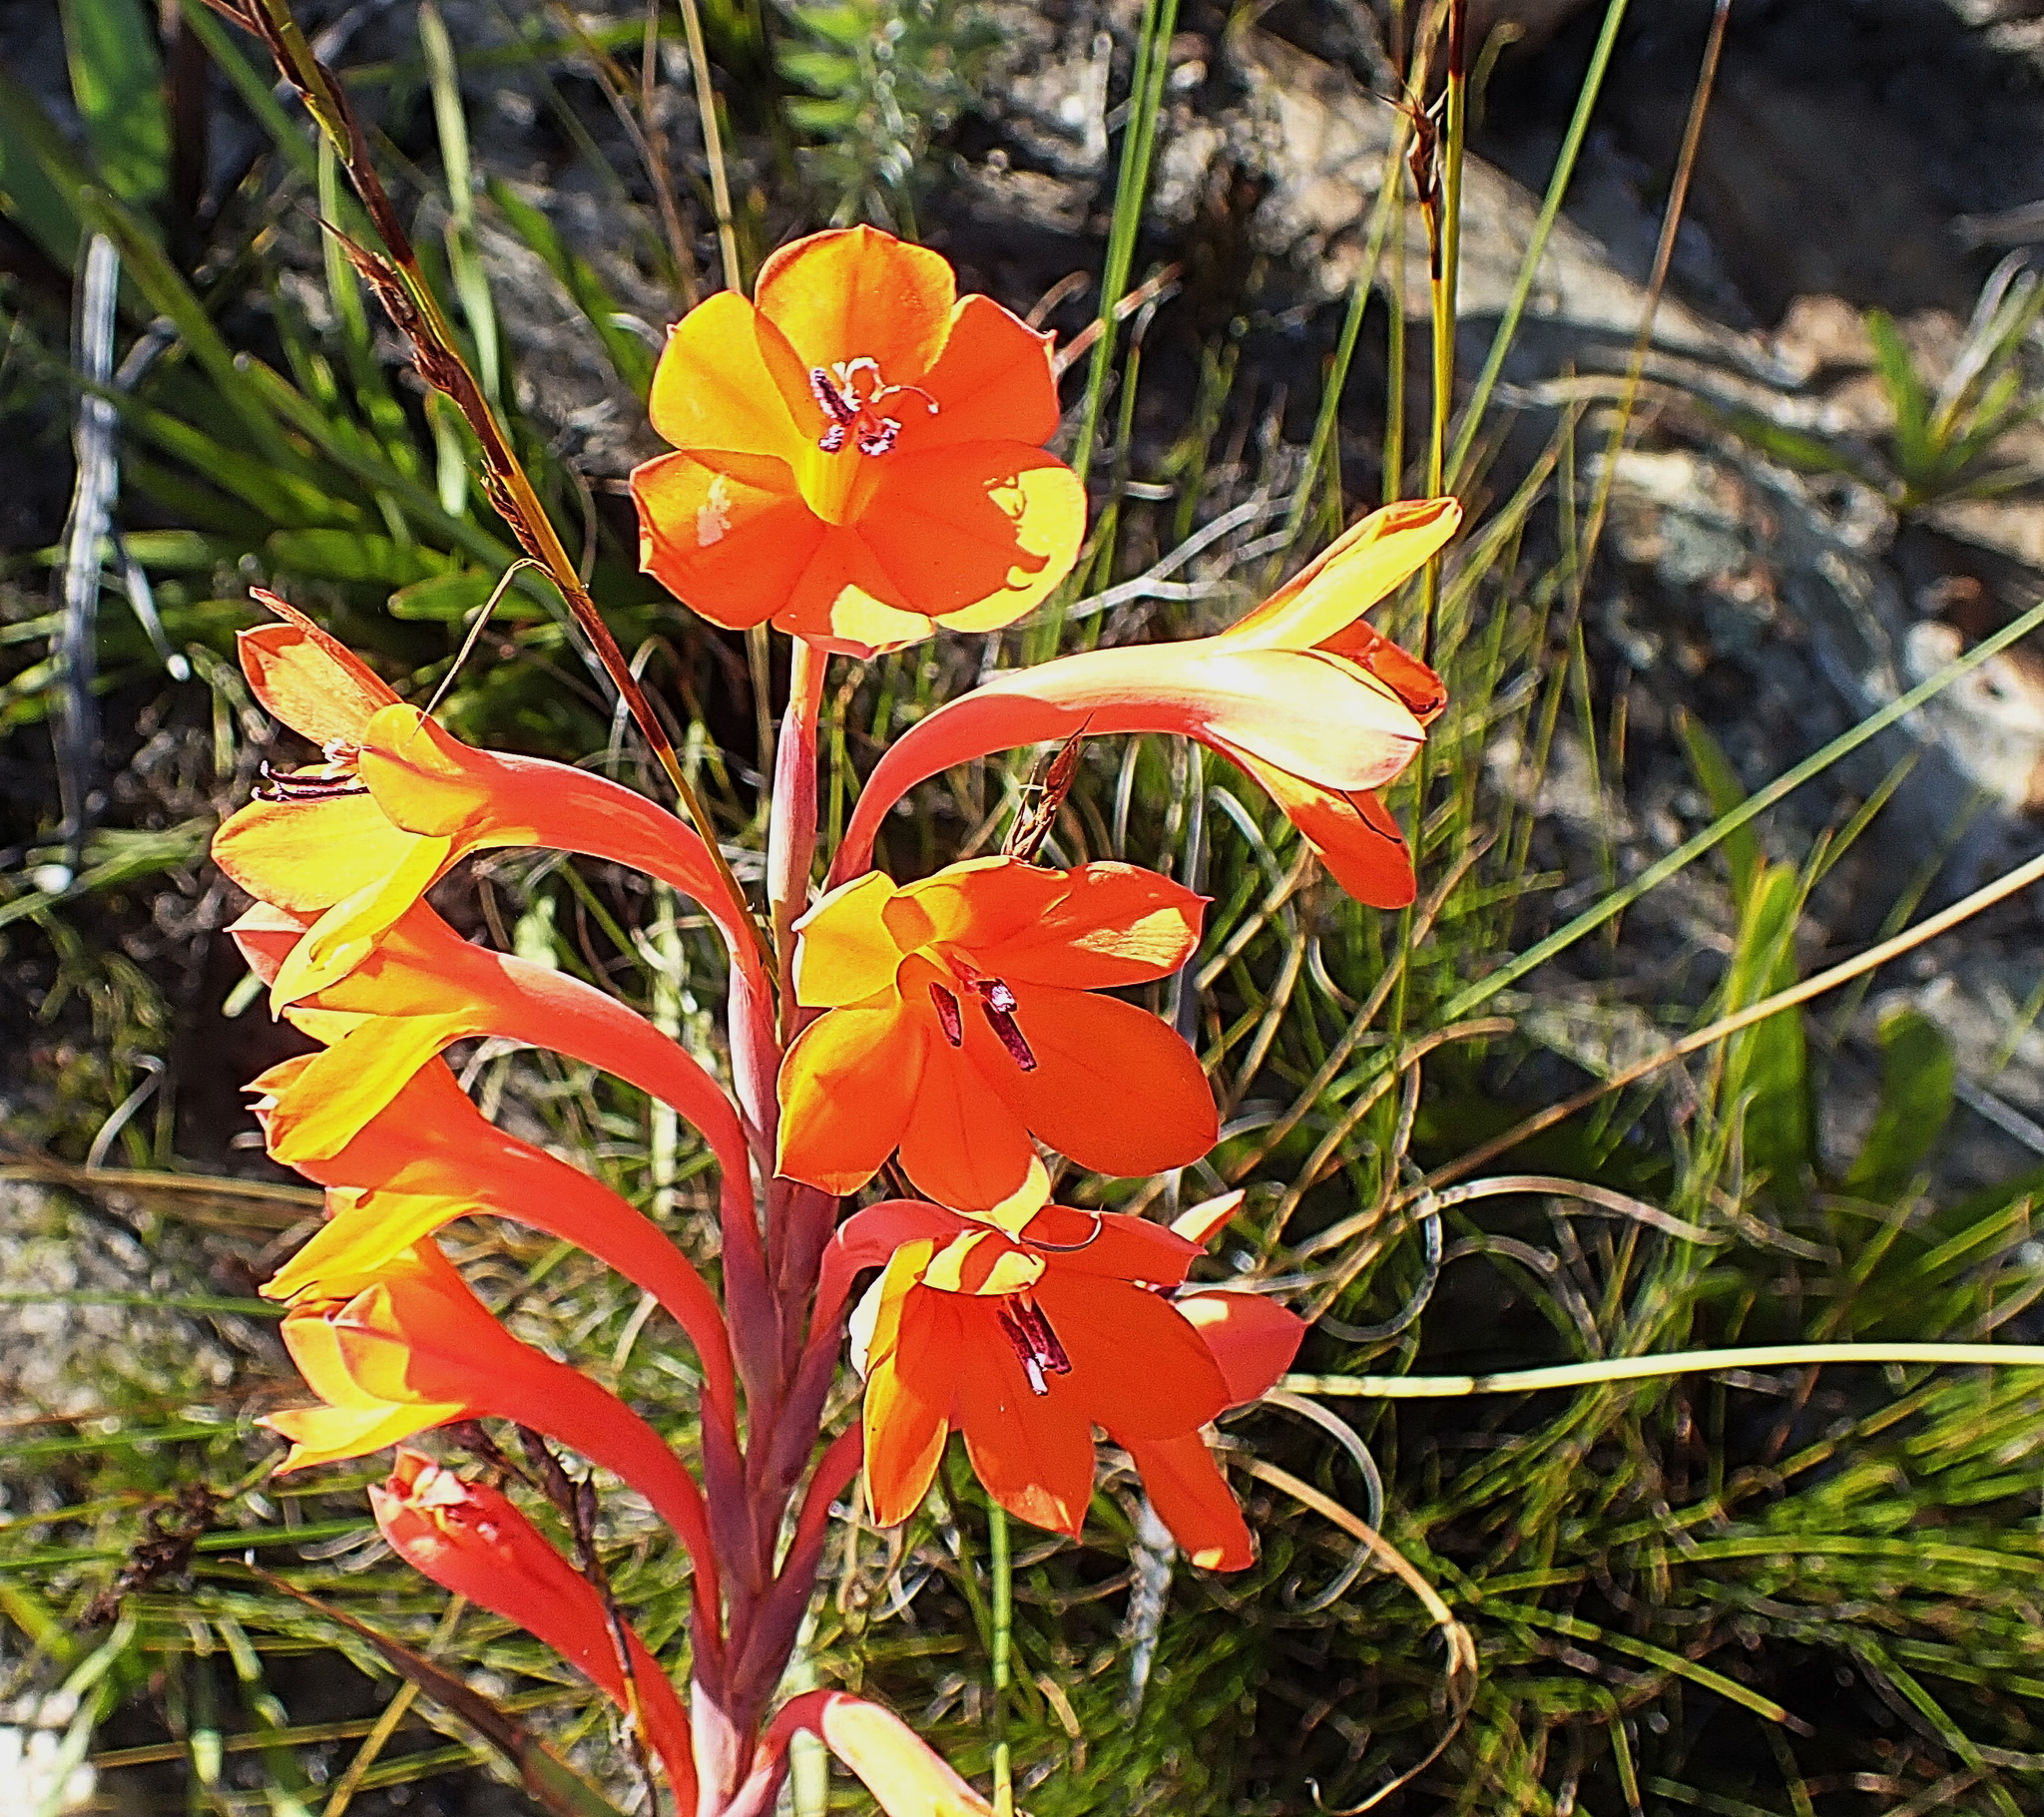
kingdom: Plantae
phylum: Tracheophyta
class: Liliopsida
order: Asparagales
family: Iridaceae
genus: Watsonia
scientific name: Watsonia pillansii
